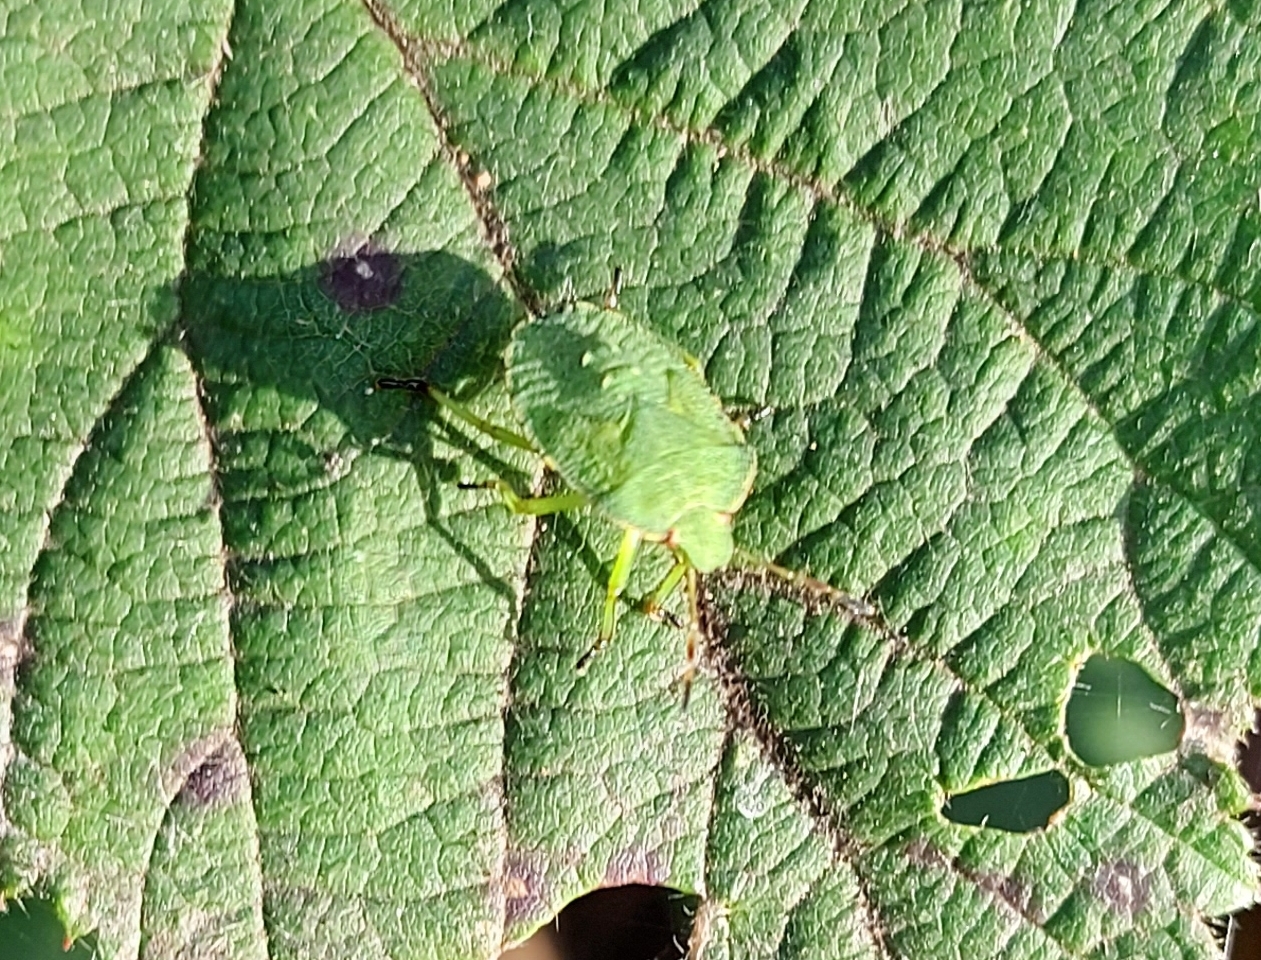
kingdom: Animalia
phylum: Arthropoda
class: Insecta
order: Hemiptera
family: Pentatomidae
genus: Palomena
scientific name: Palomena prasina
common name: Green shieldbug
